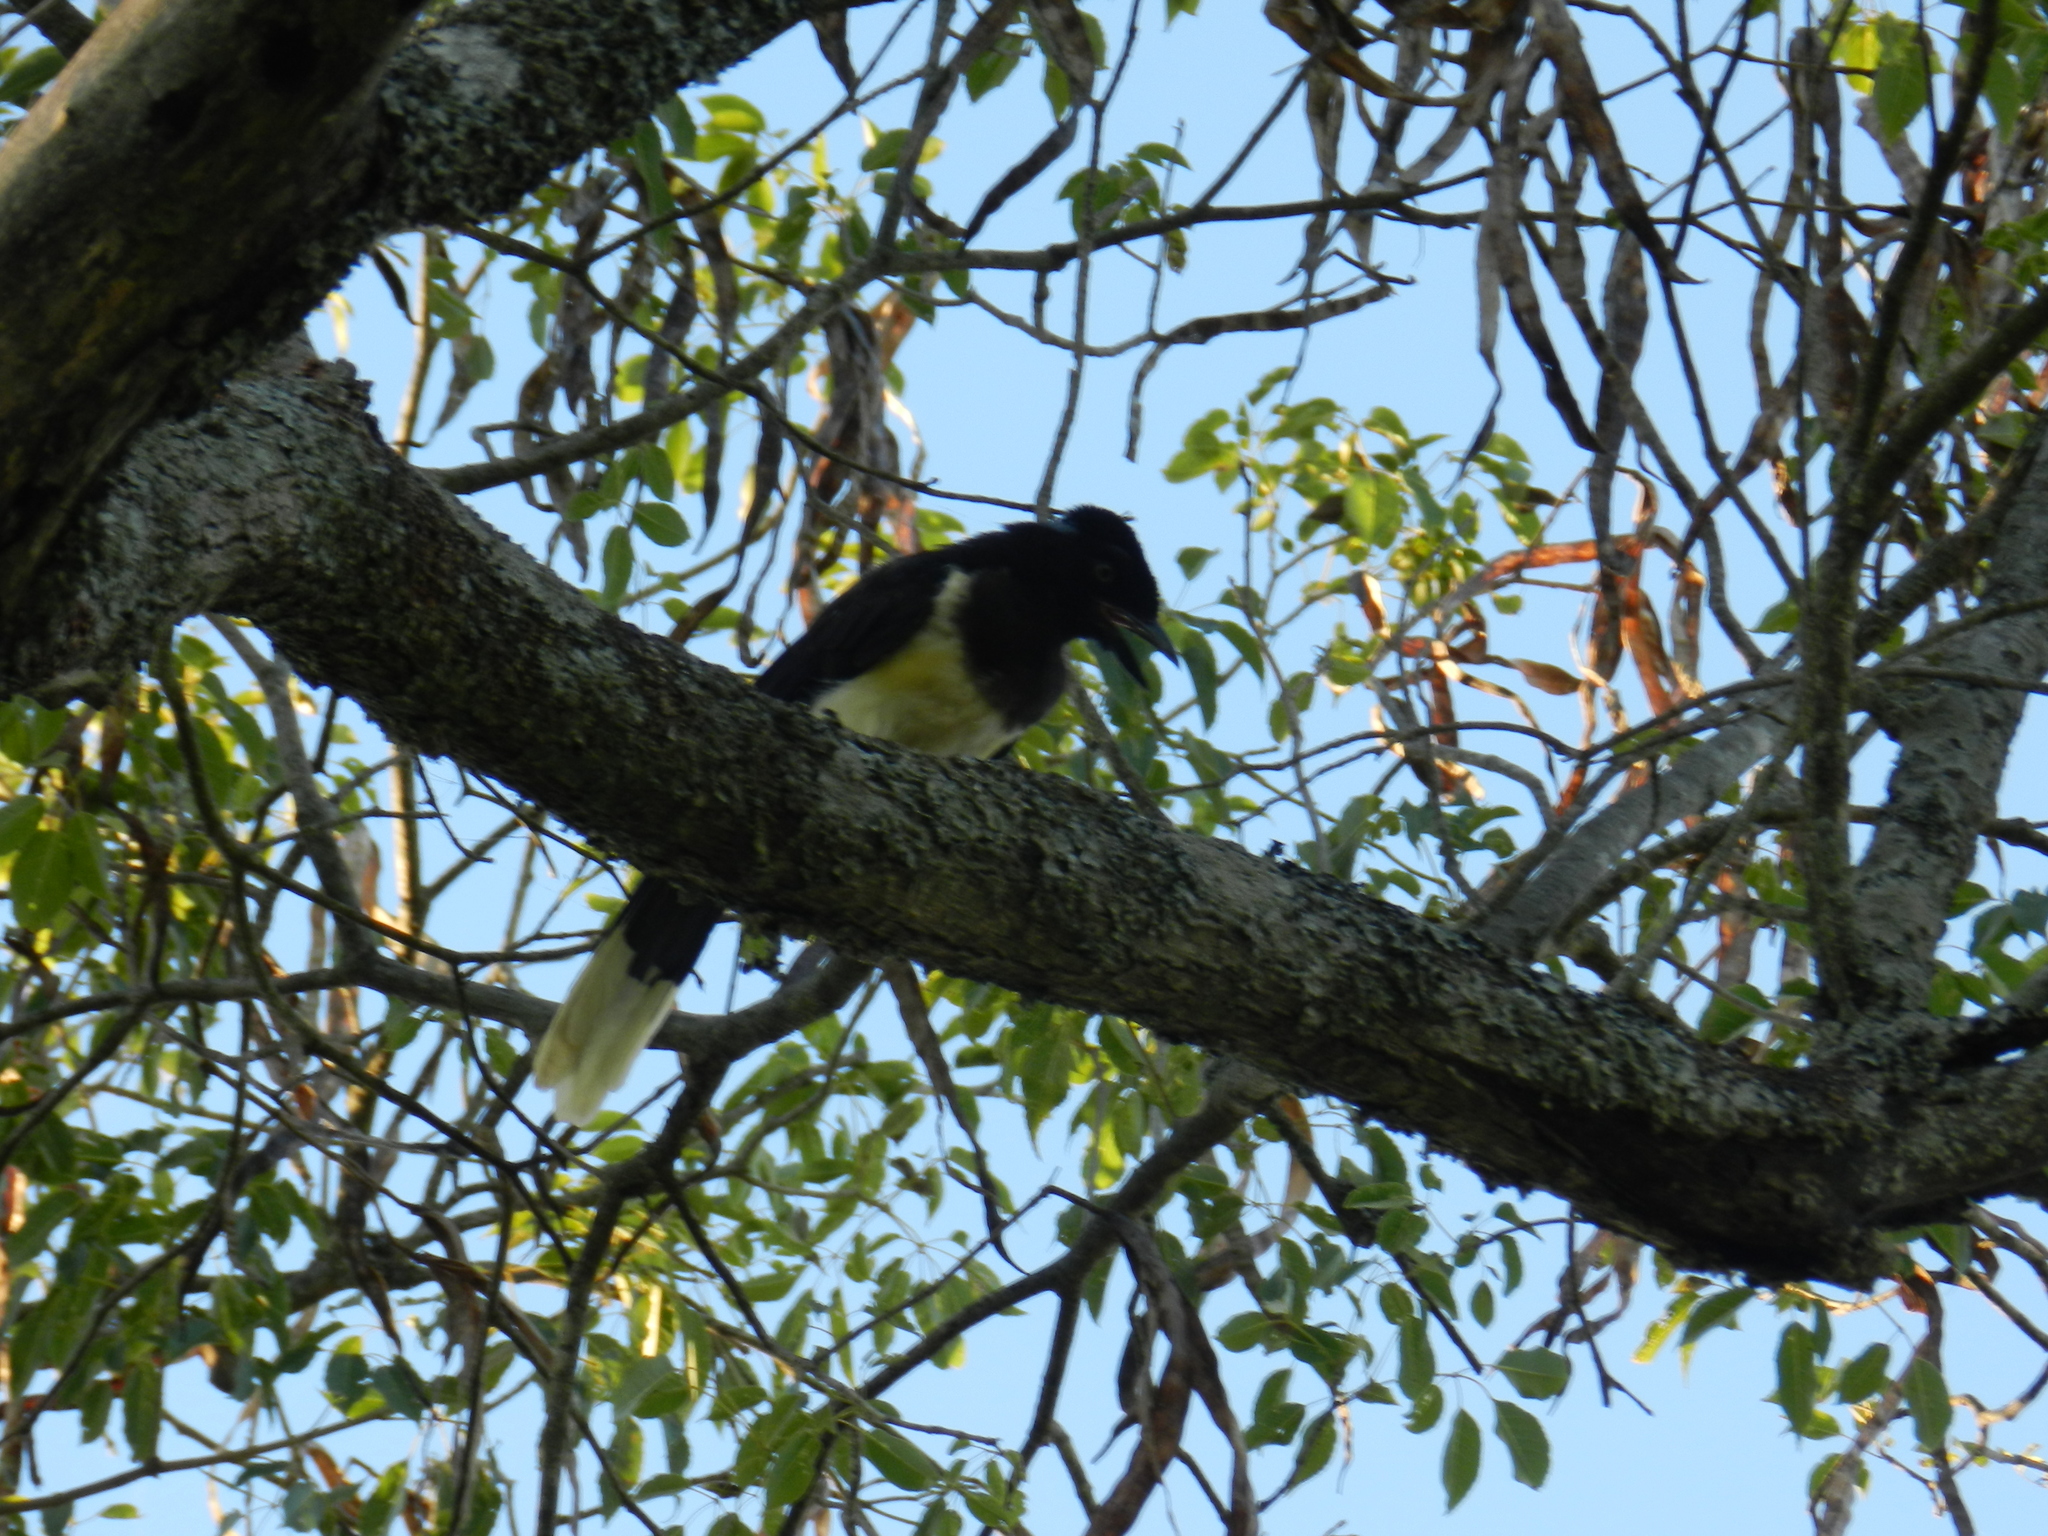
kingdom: Animalia
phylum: Chordata
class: Aves
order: Passeriformes
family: Corvidae
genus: Cyanocorax
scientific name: Cyanocorax chrysops
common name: Plush-crested jay
